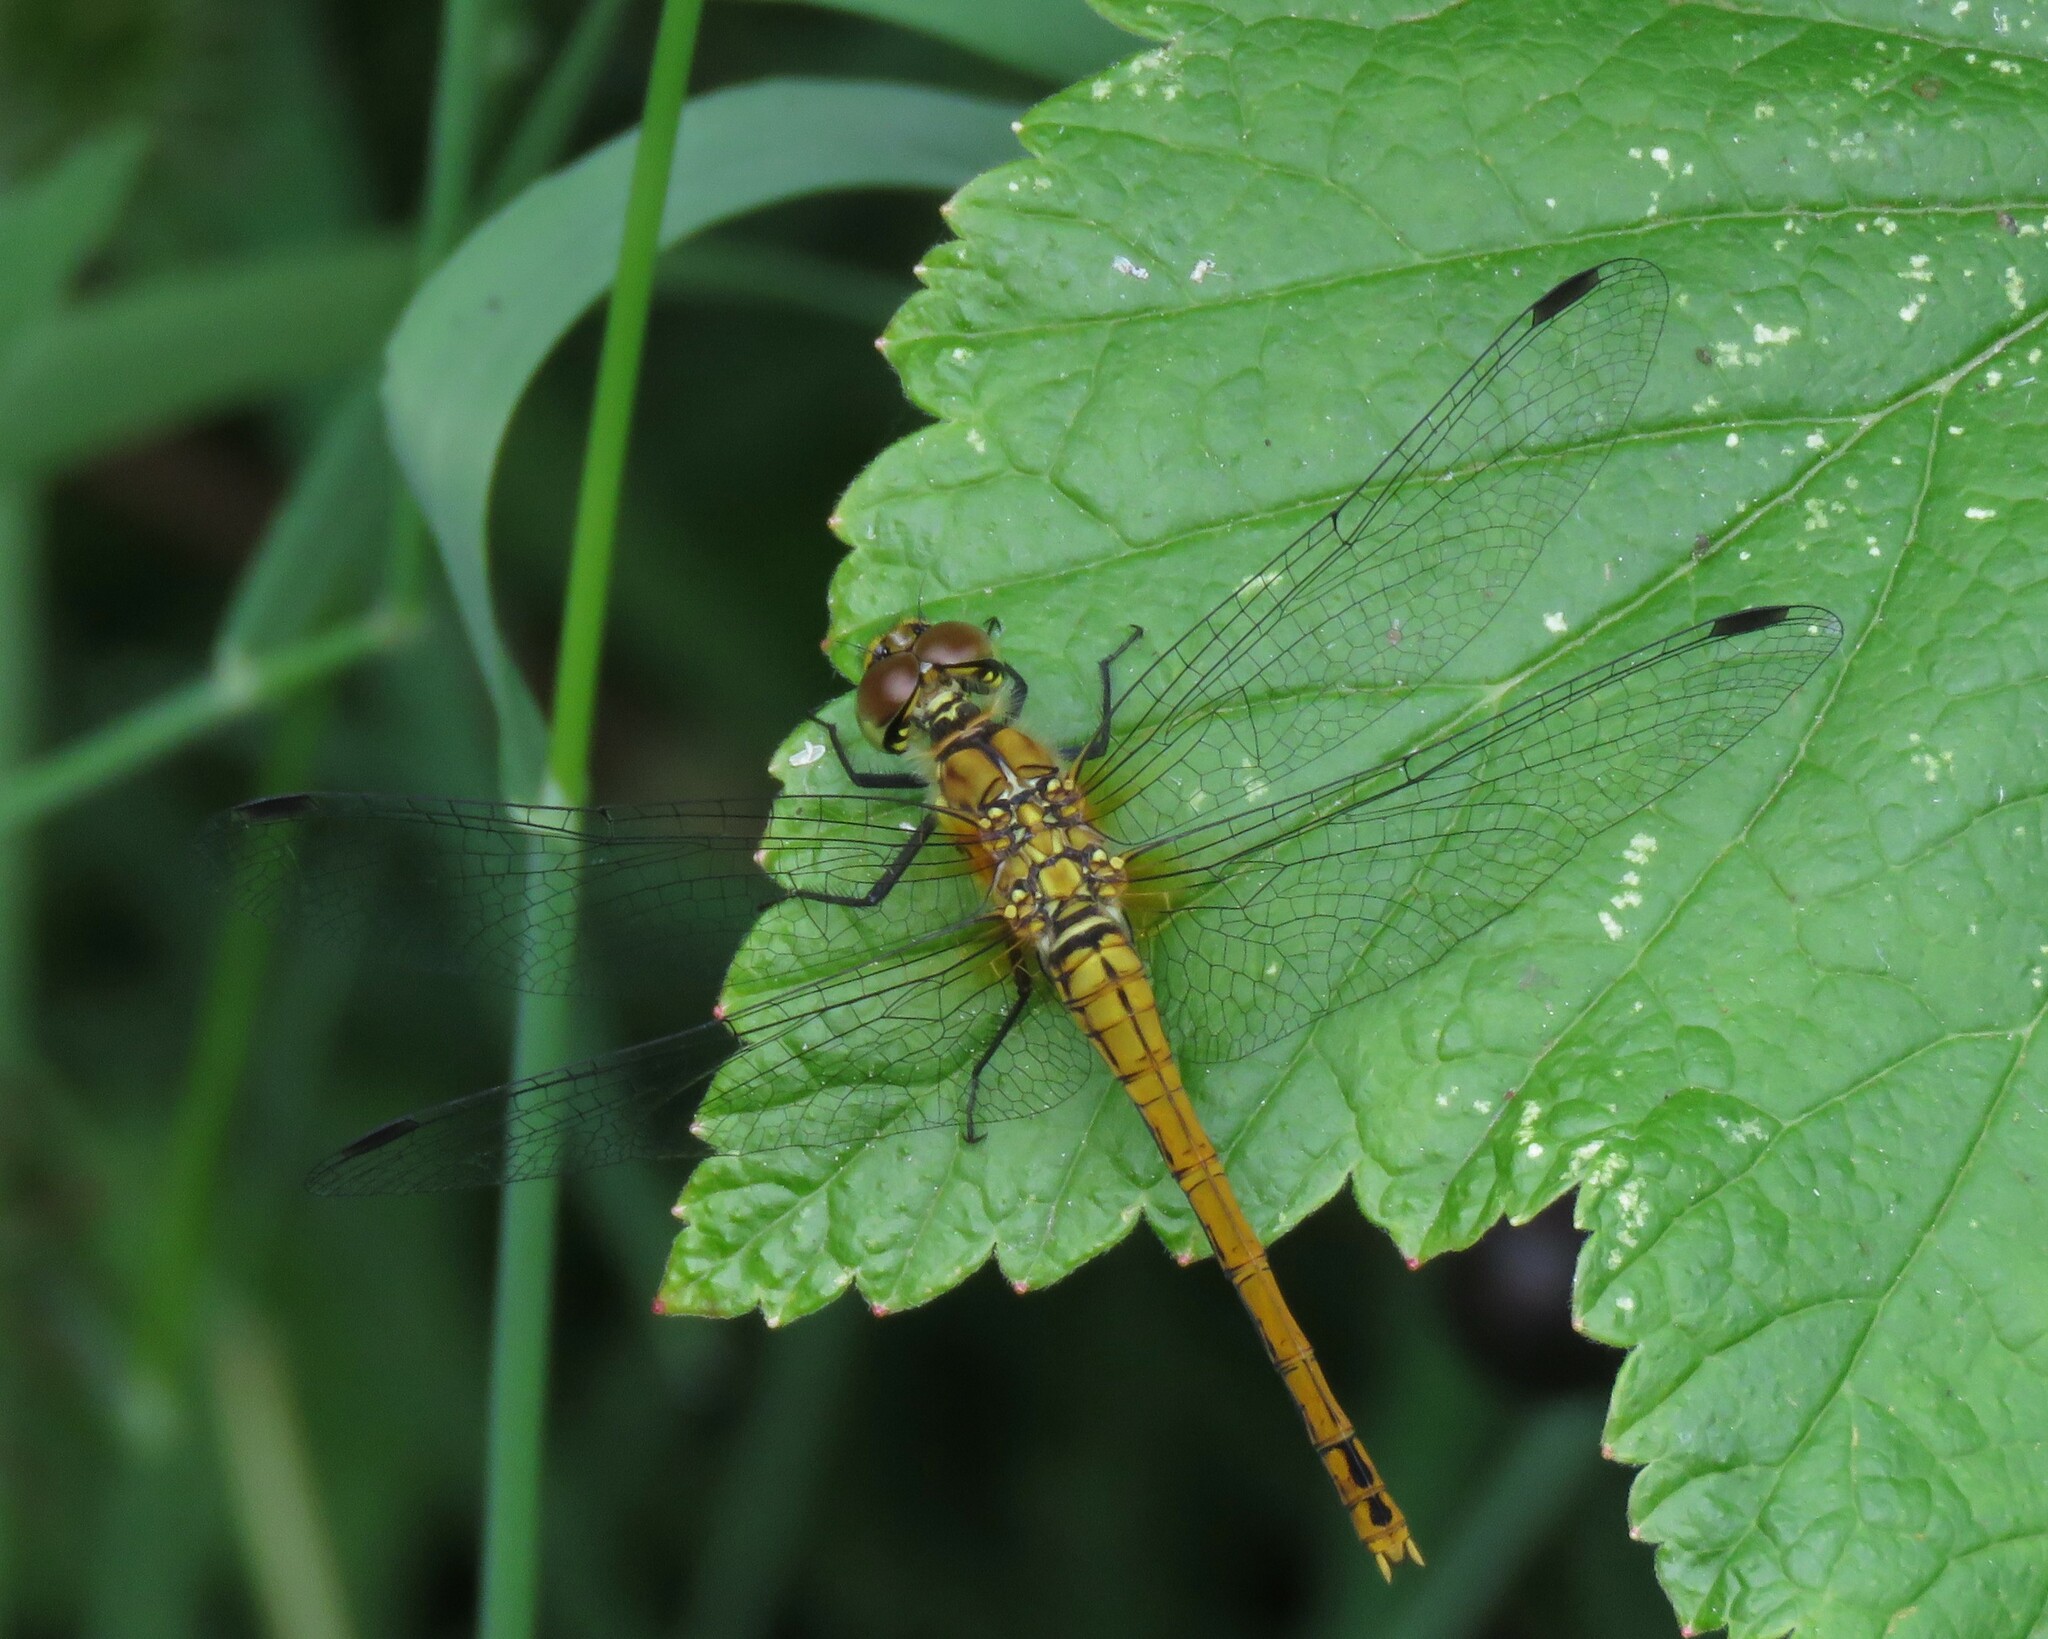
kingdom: Animalia
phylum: Arthropoda
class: Insecta
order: Odonata
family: Libellulidae
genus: Sympetrum
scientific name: Sympetrum sanguineum
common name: Ruddy darter
